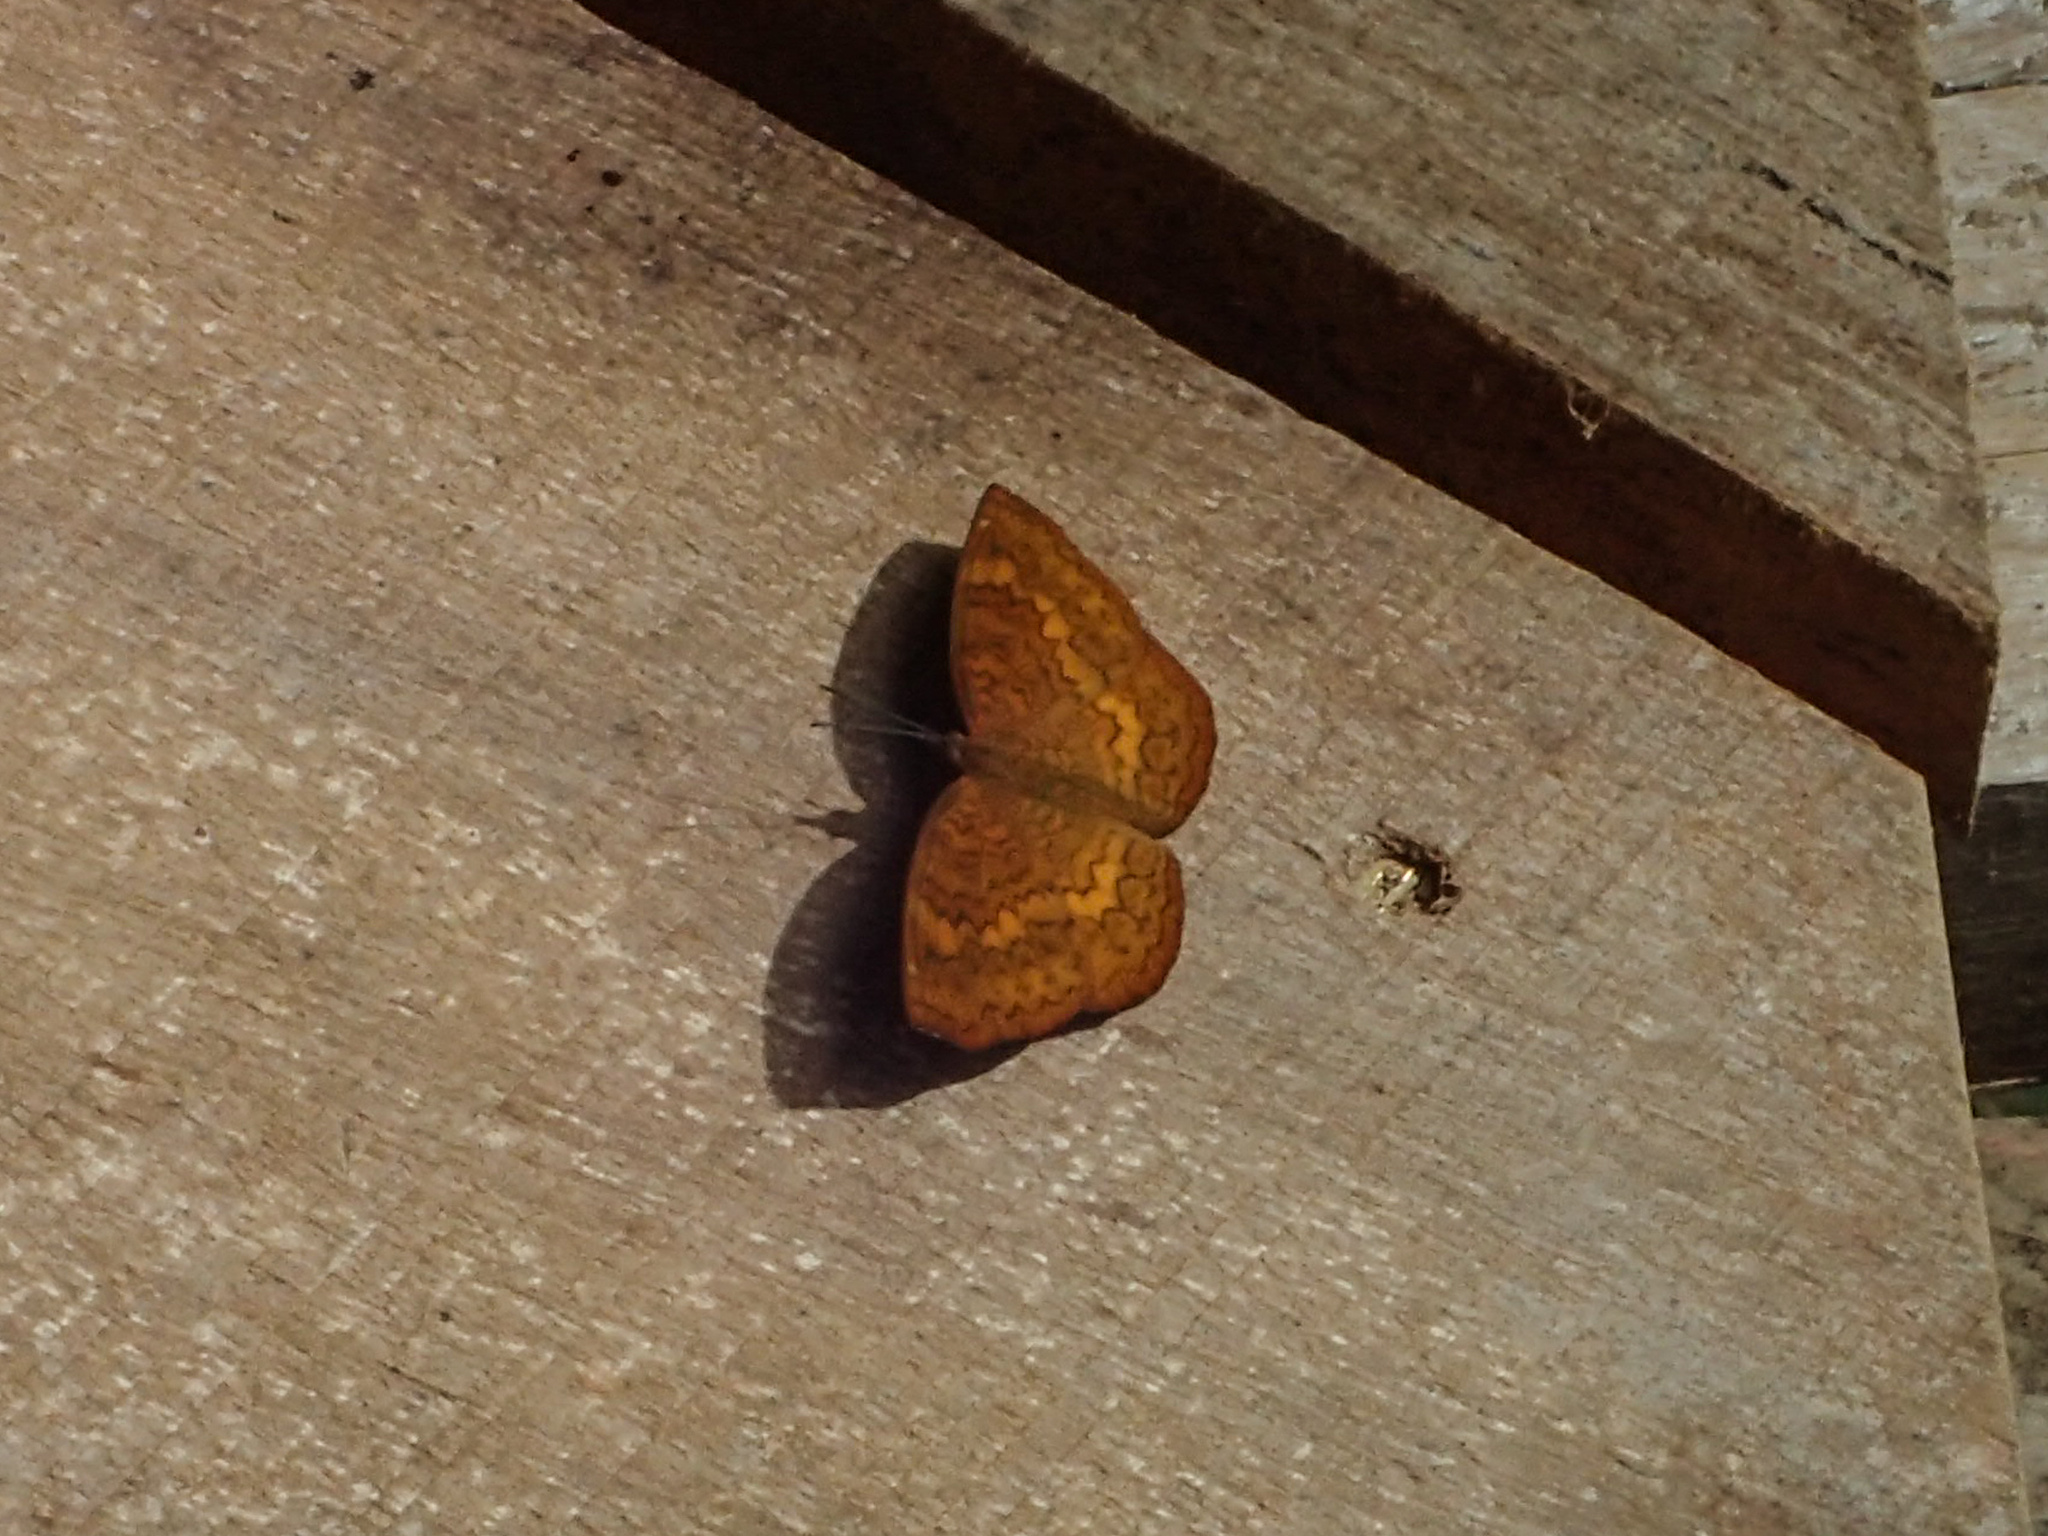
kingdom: Animalia
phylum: Arthropoda
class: Insecta
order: Lepidoptera
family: Nymphalidae
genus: Ariadne
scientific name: Ariadne merione
